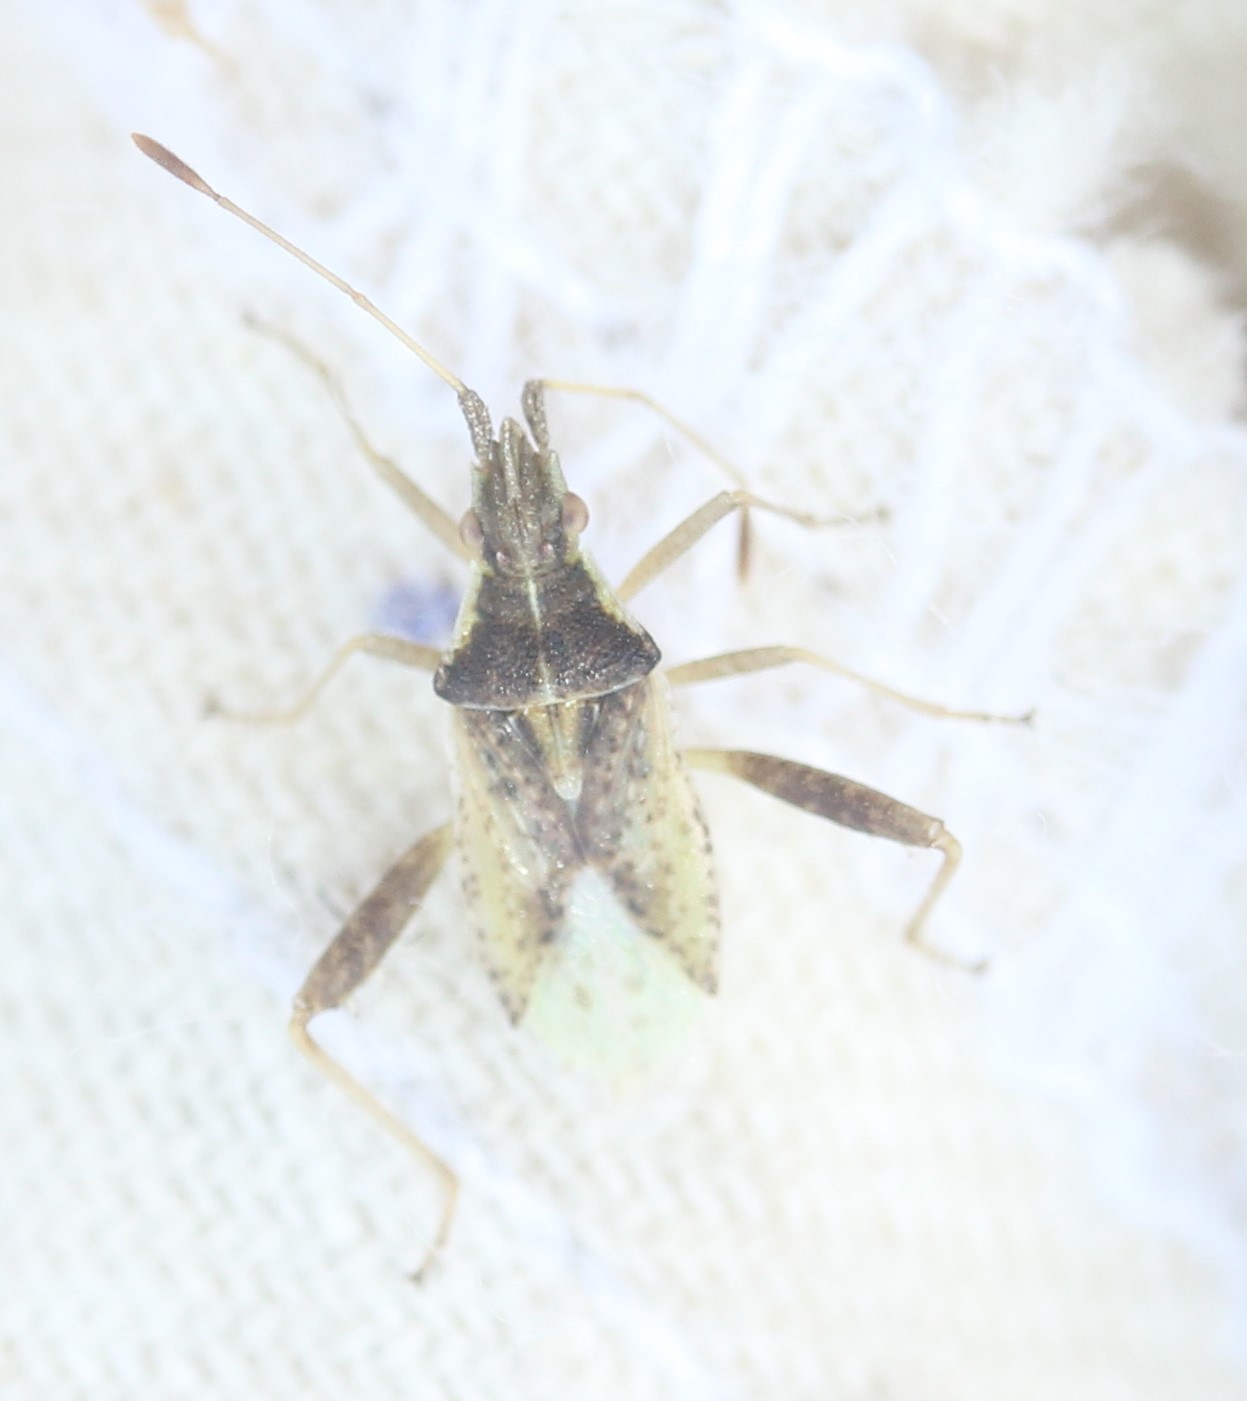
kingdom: Animalia
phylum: Arthropoda
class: Insecta
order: Hemiptera
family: Rhopalidae
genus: Harmostes
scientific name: Harmostes reflexulus
